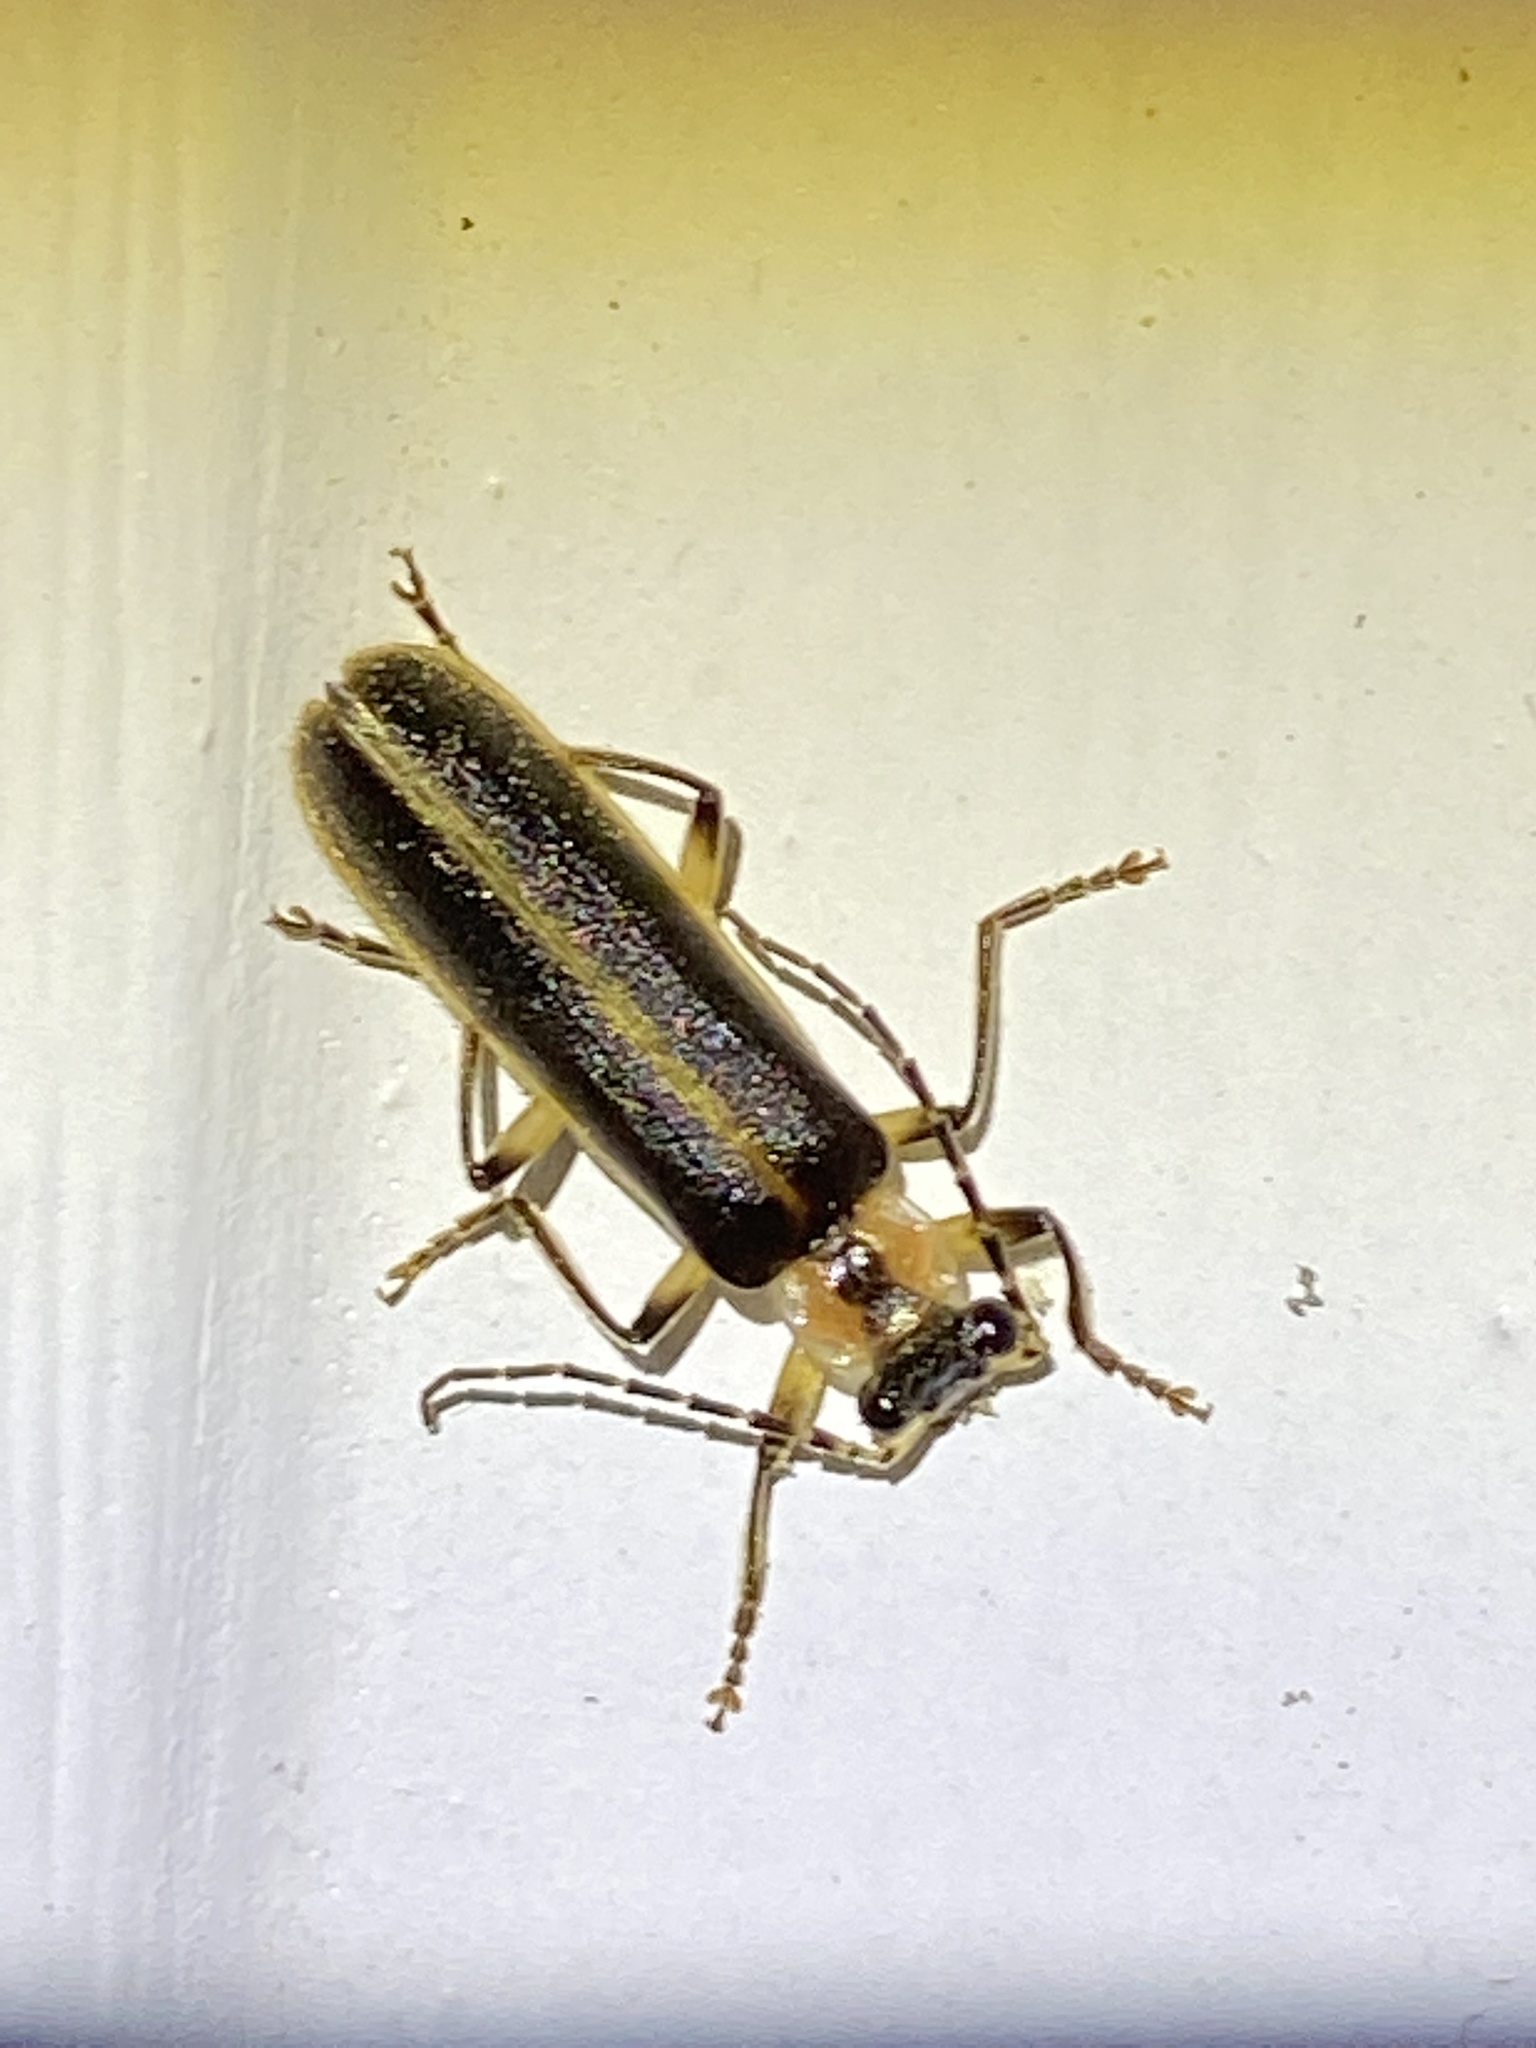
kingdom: Animalia
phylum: Arthropoda
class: Insecta
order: Coleoptera
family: Cantharidae
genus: Podabrus
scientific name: Podabrus basilaris
